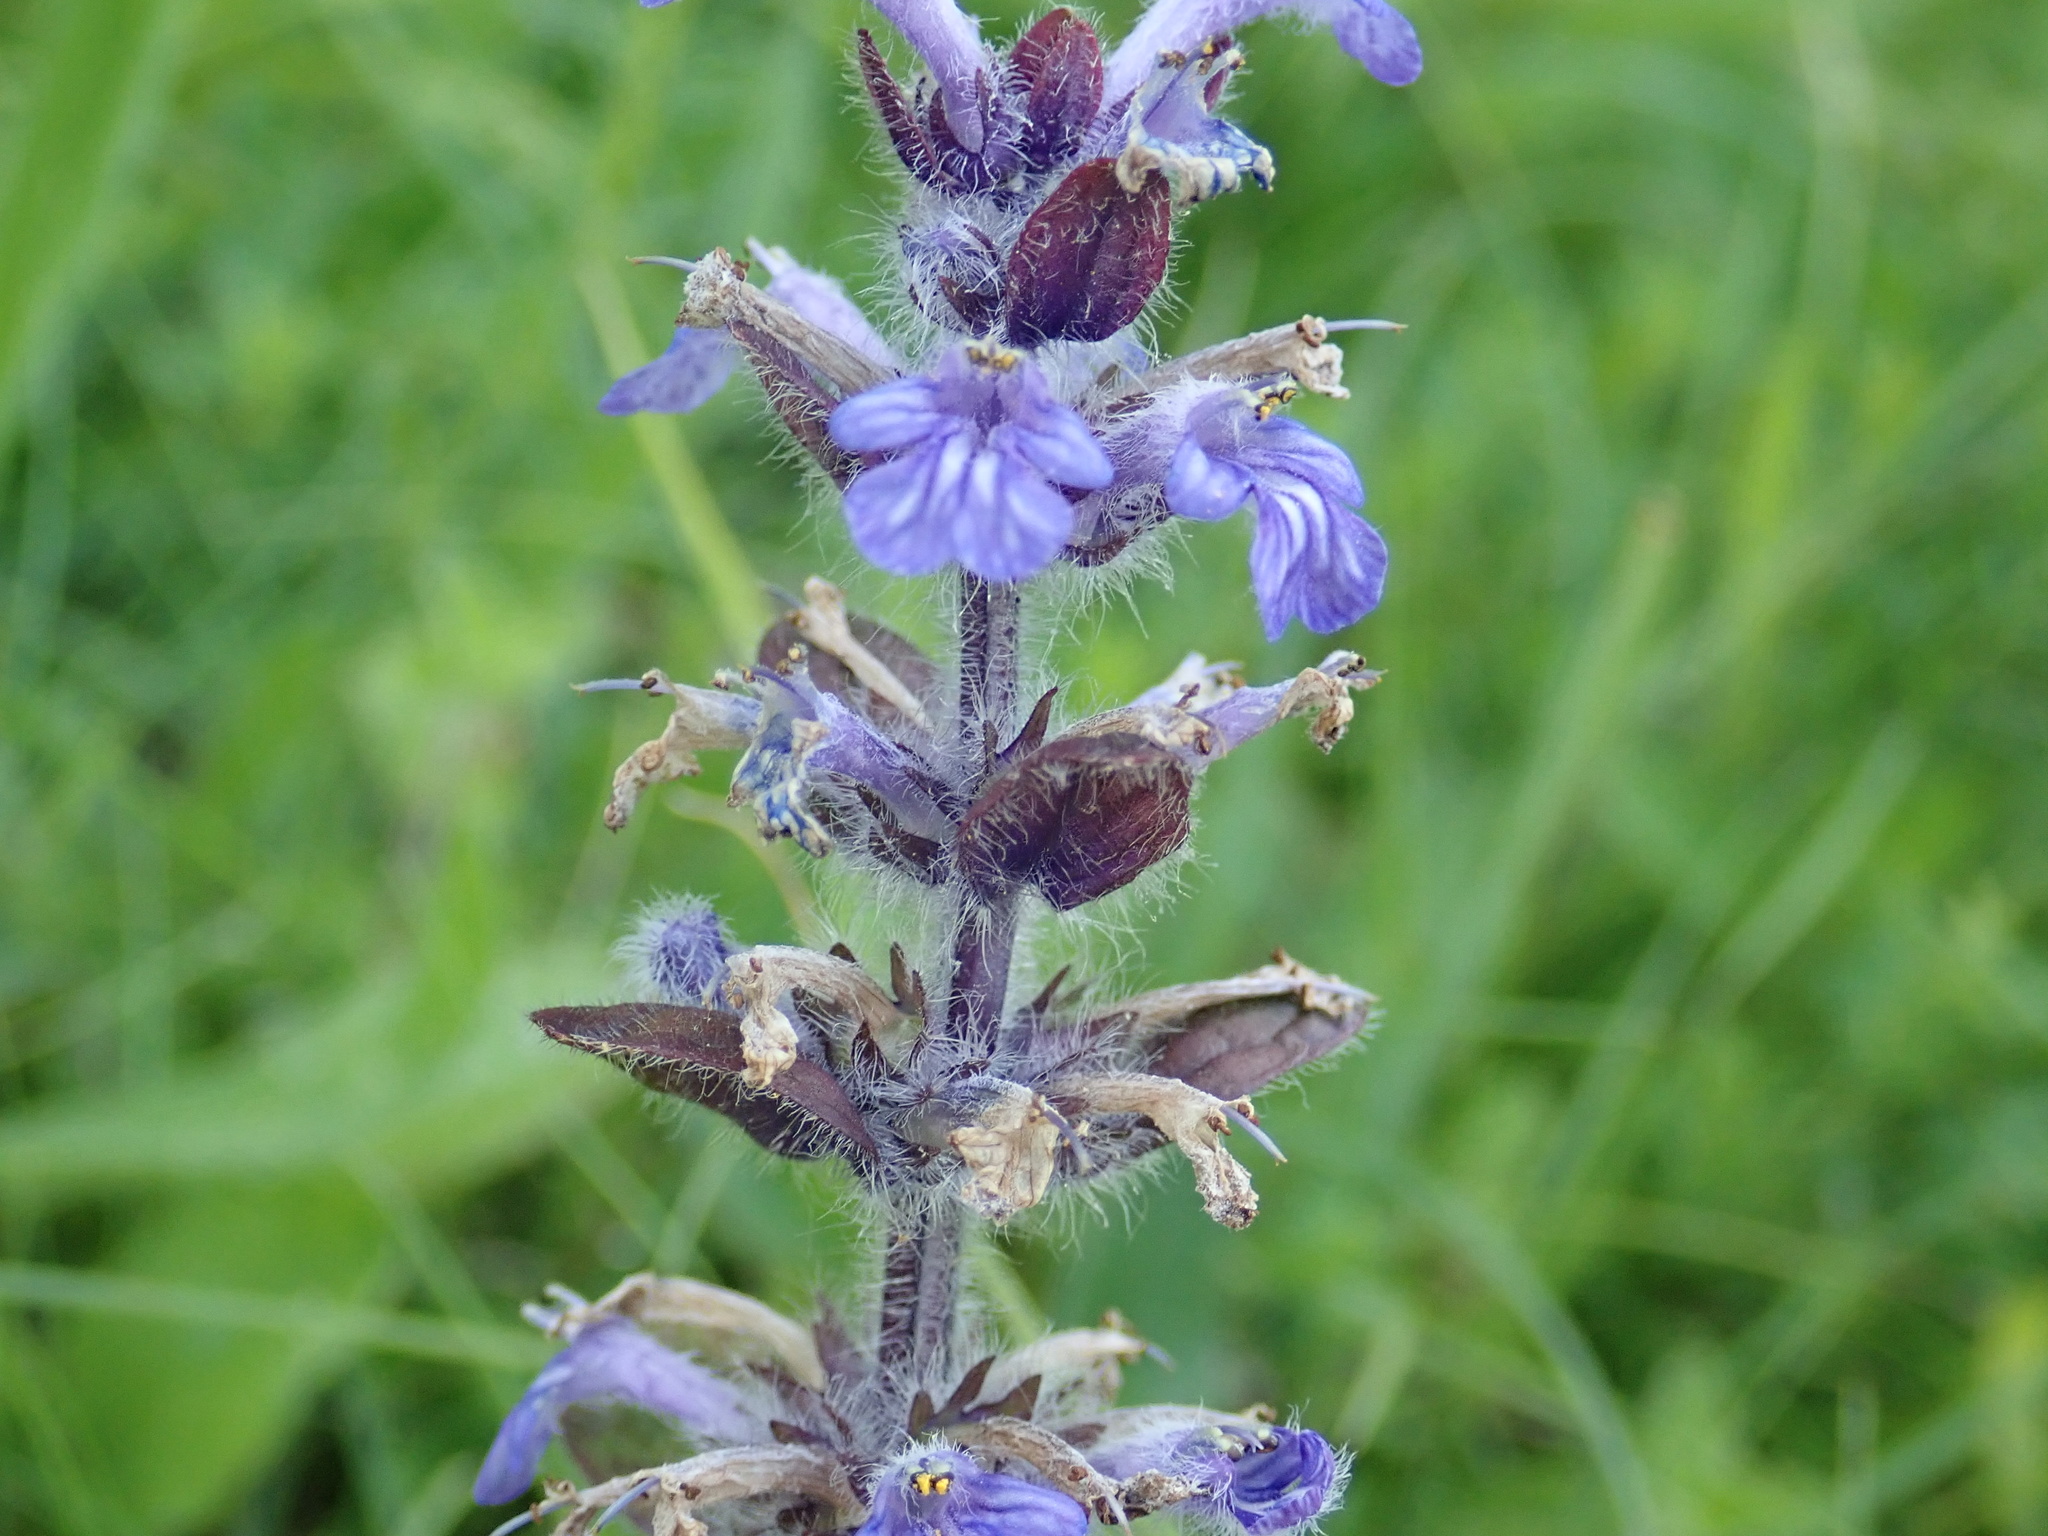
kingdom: Plantae
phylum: Tracheophyta
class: Magnoliopsida
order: Lamiales
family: Lamiaceae
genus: Ajuga
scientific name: Ajuga reptans
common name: Bugle
